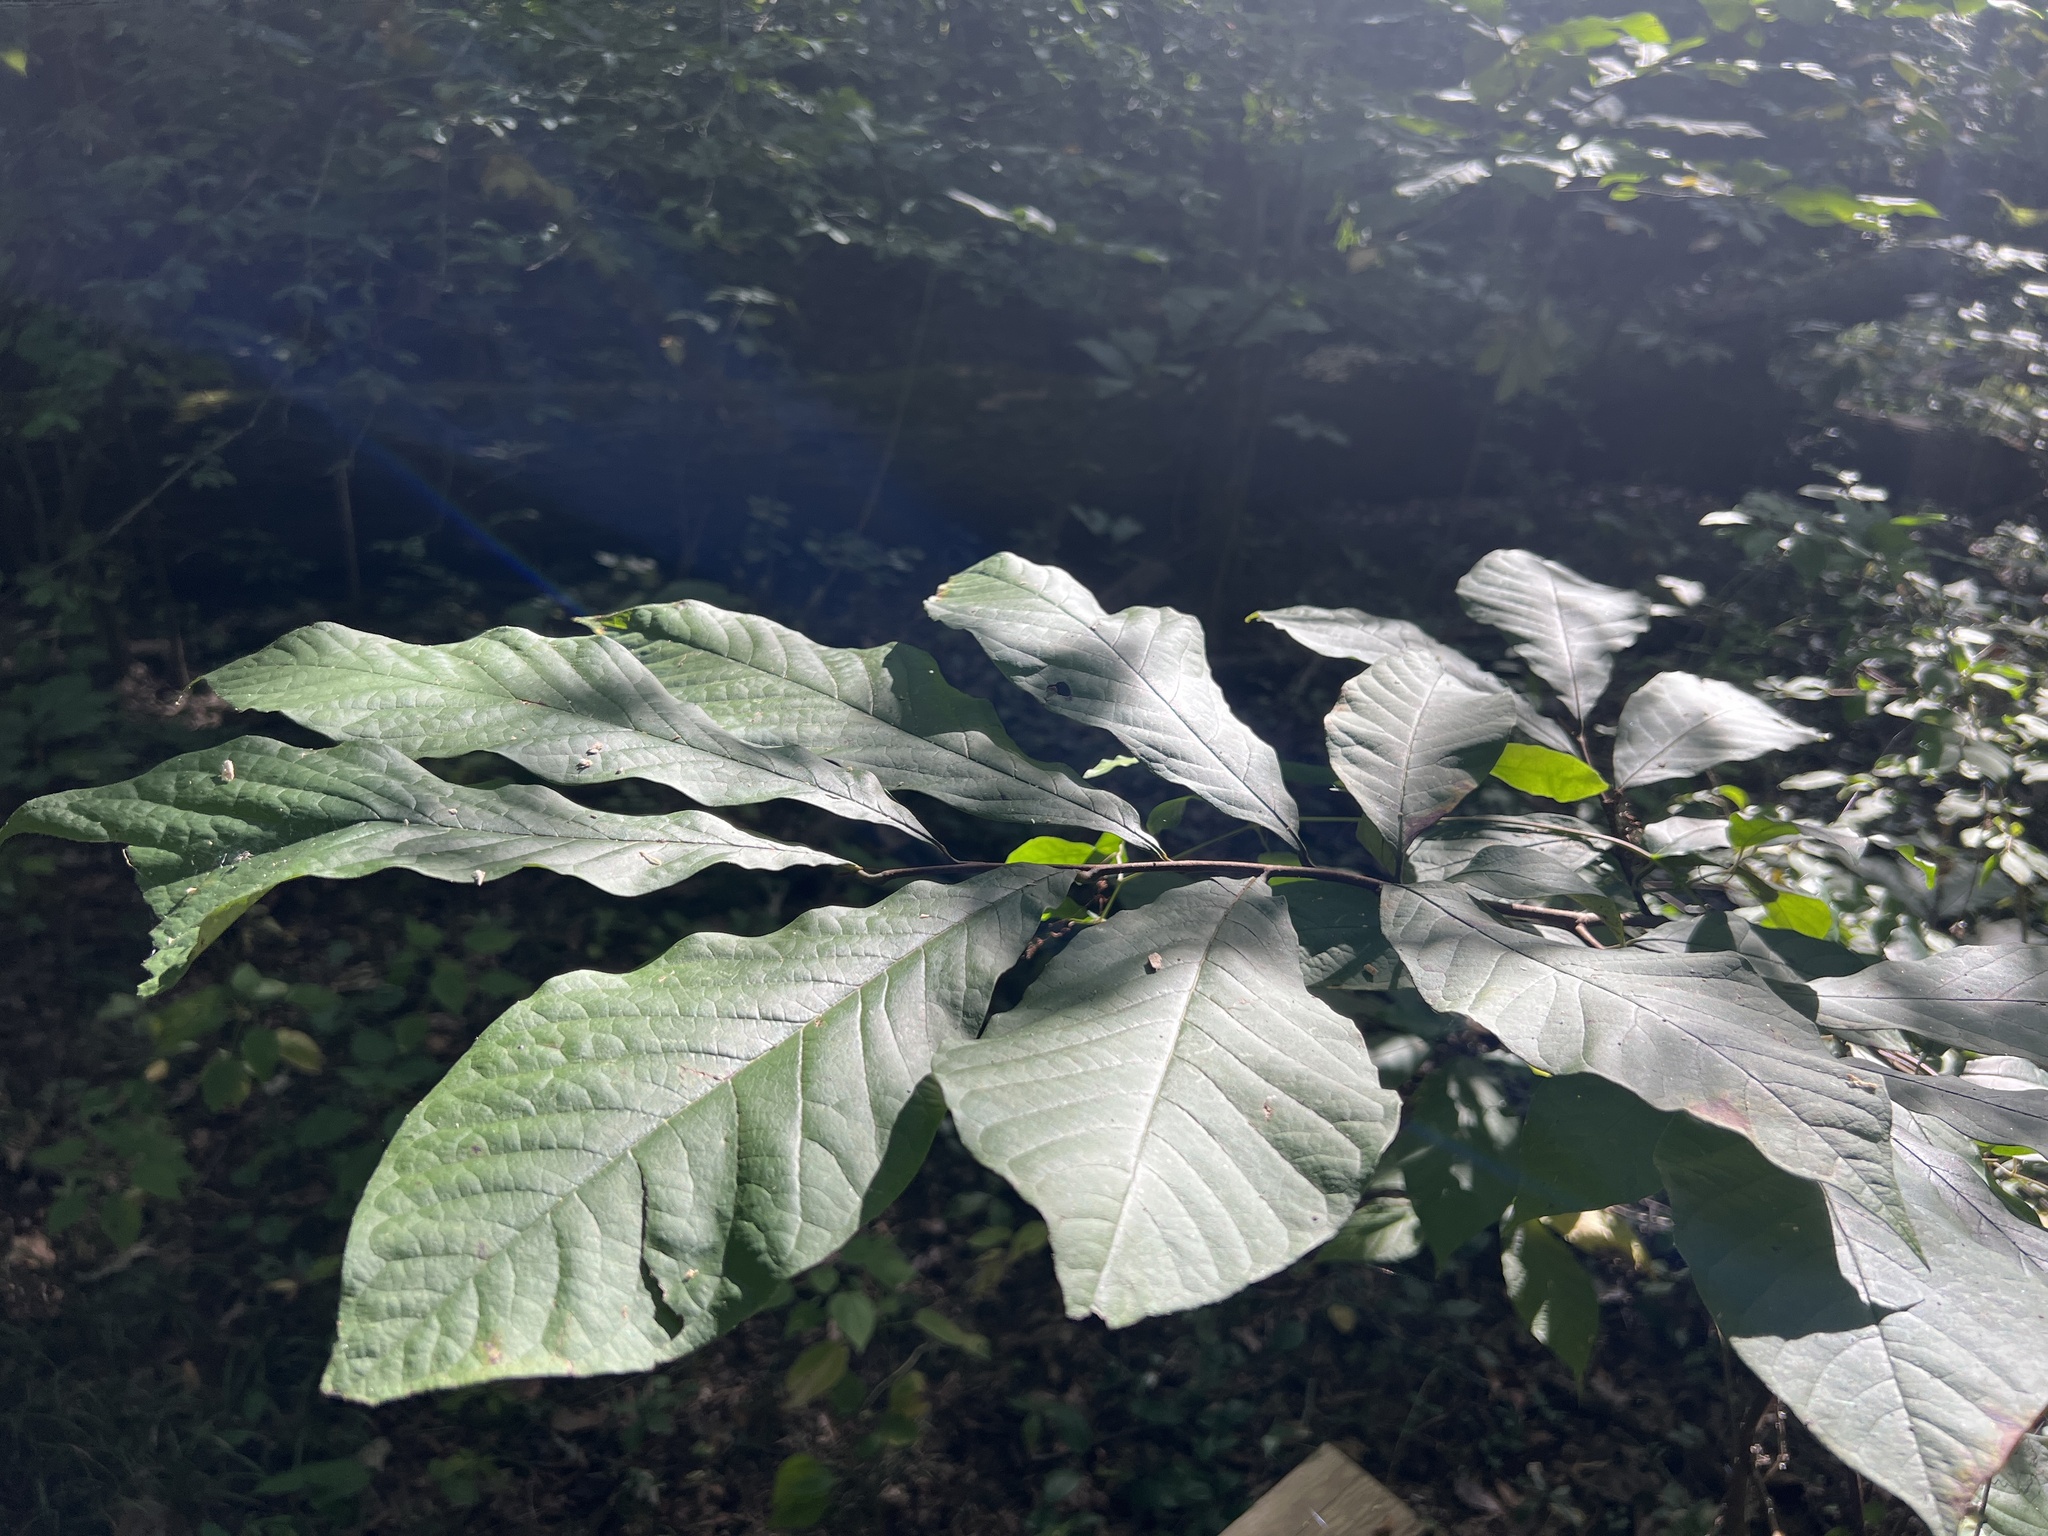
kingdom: Plantae
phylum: Tracheophyta
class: Magnoliopsida
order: Magnoliales
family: Annonaceae
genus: Asimina
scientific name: Asimina triloba
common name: Dog-banana
